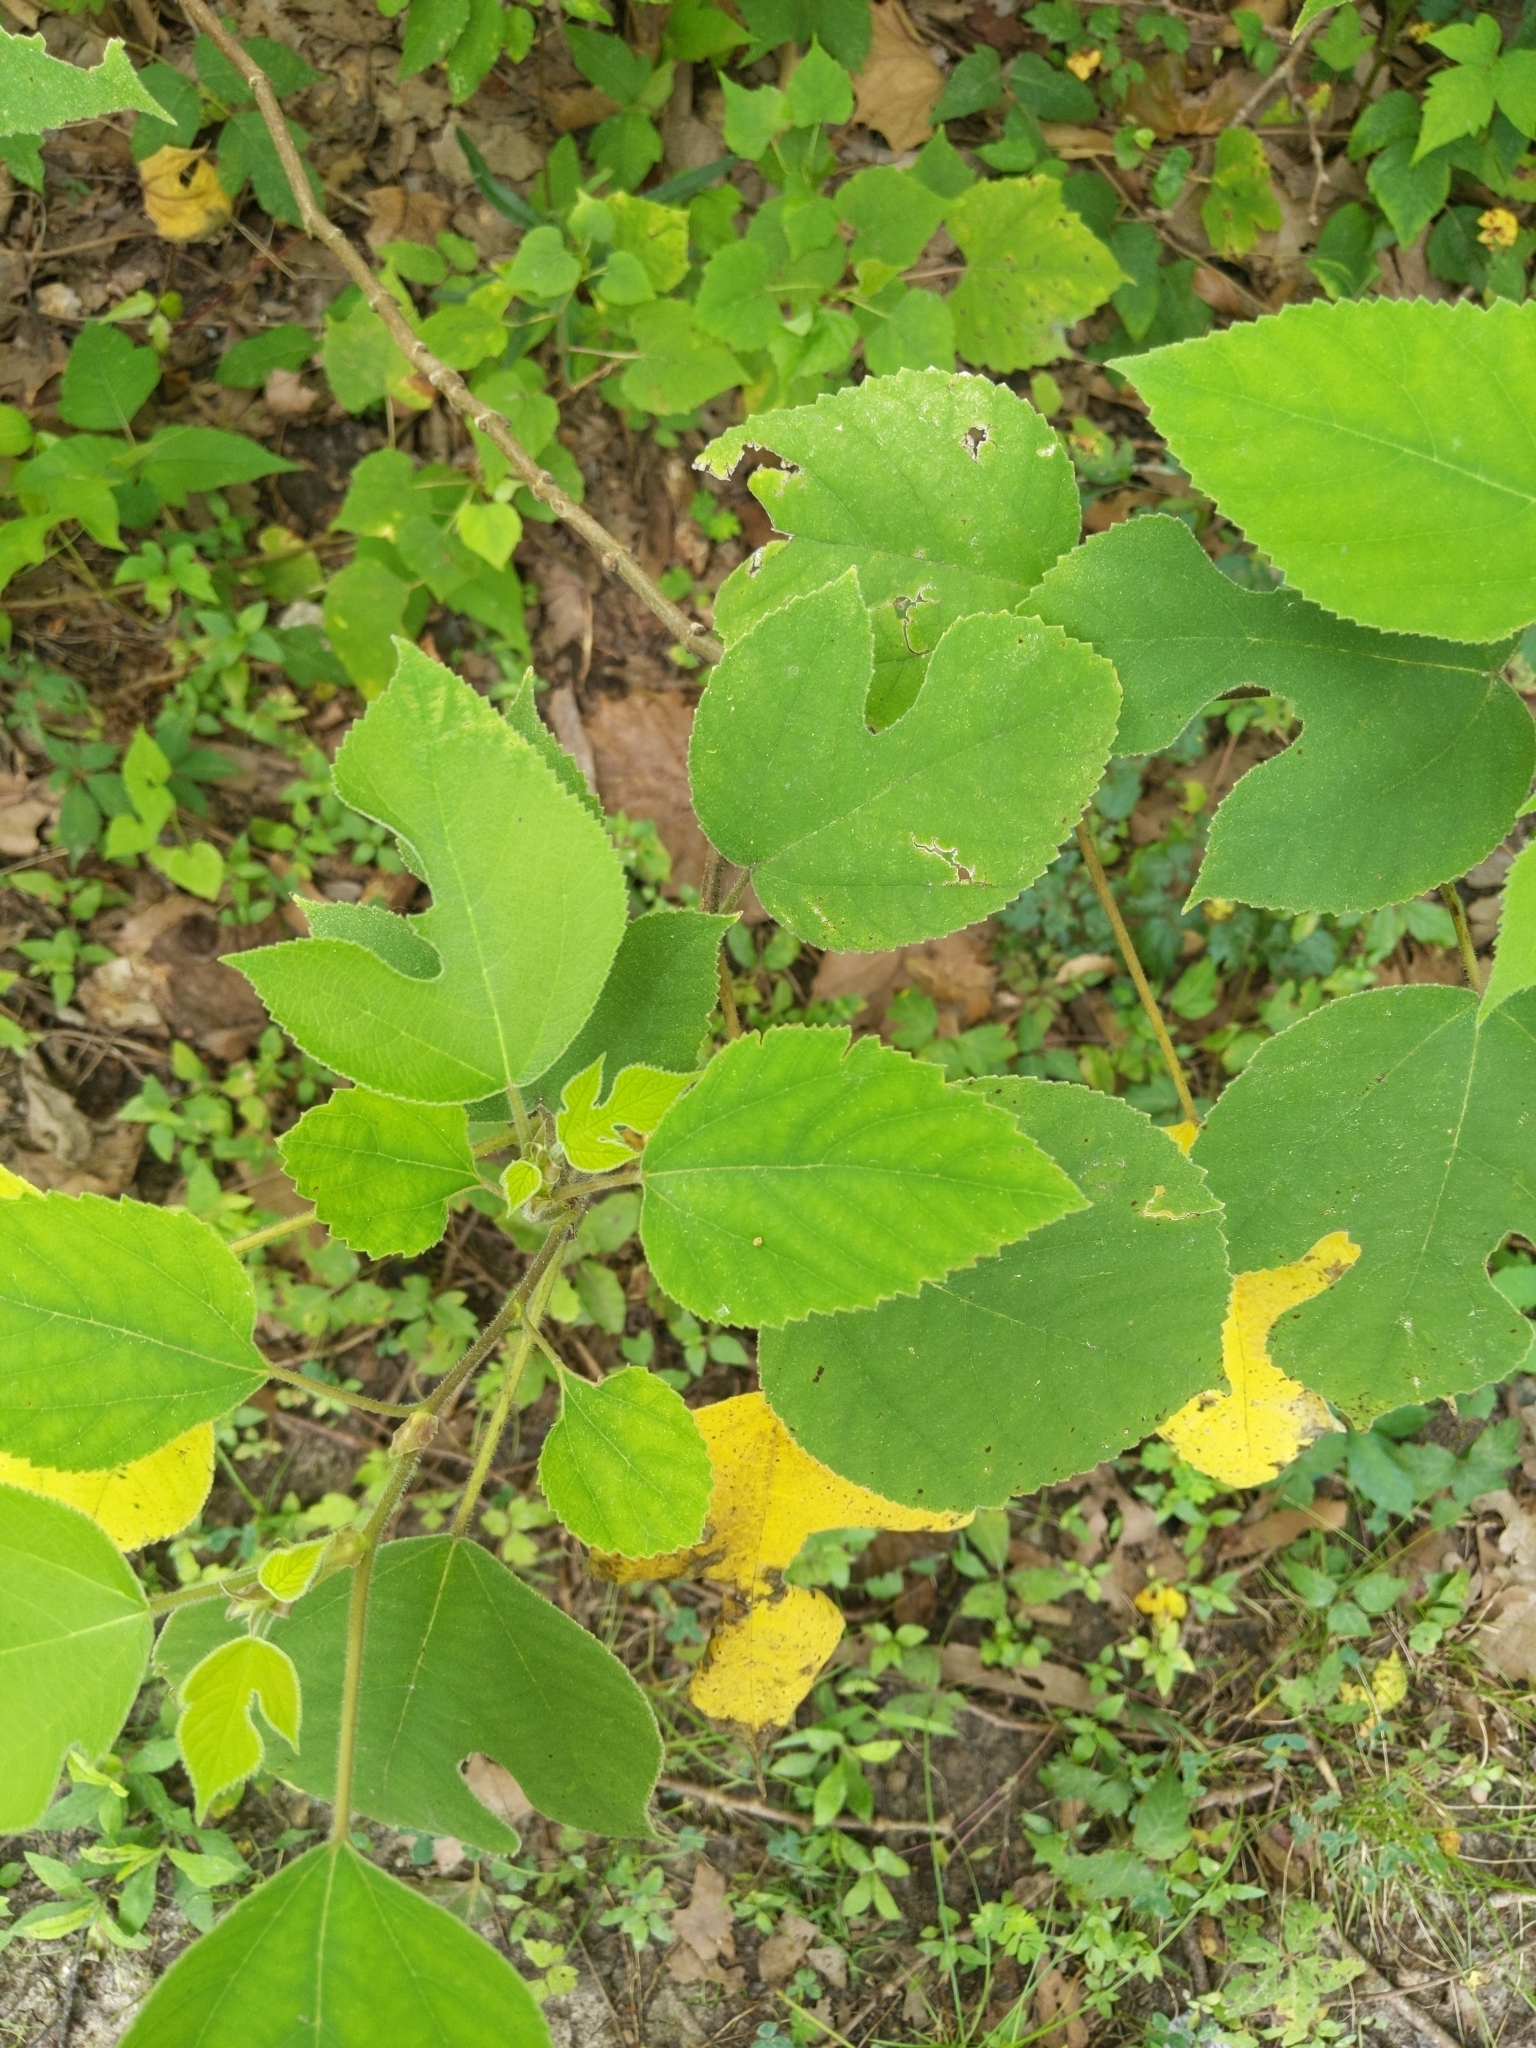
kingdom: Plantae
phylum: Tracheophyta
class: Magnoliopsida
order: Rosales
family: Moraceae
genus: Broussonetia
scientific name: Broussonetia papyrifera
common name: Paper mulberry
